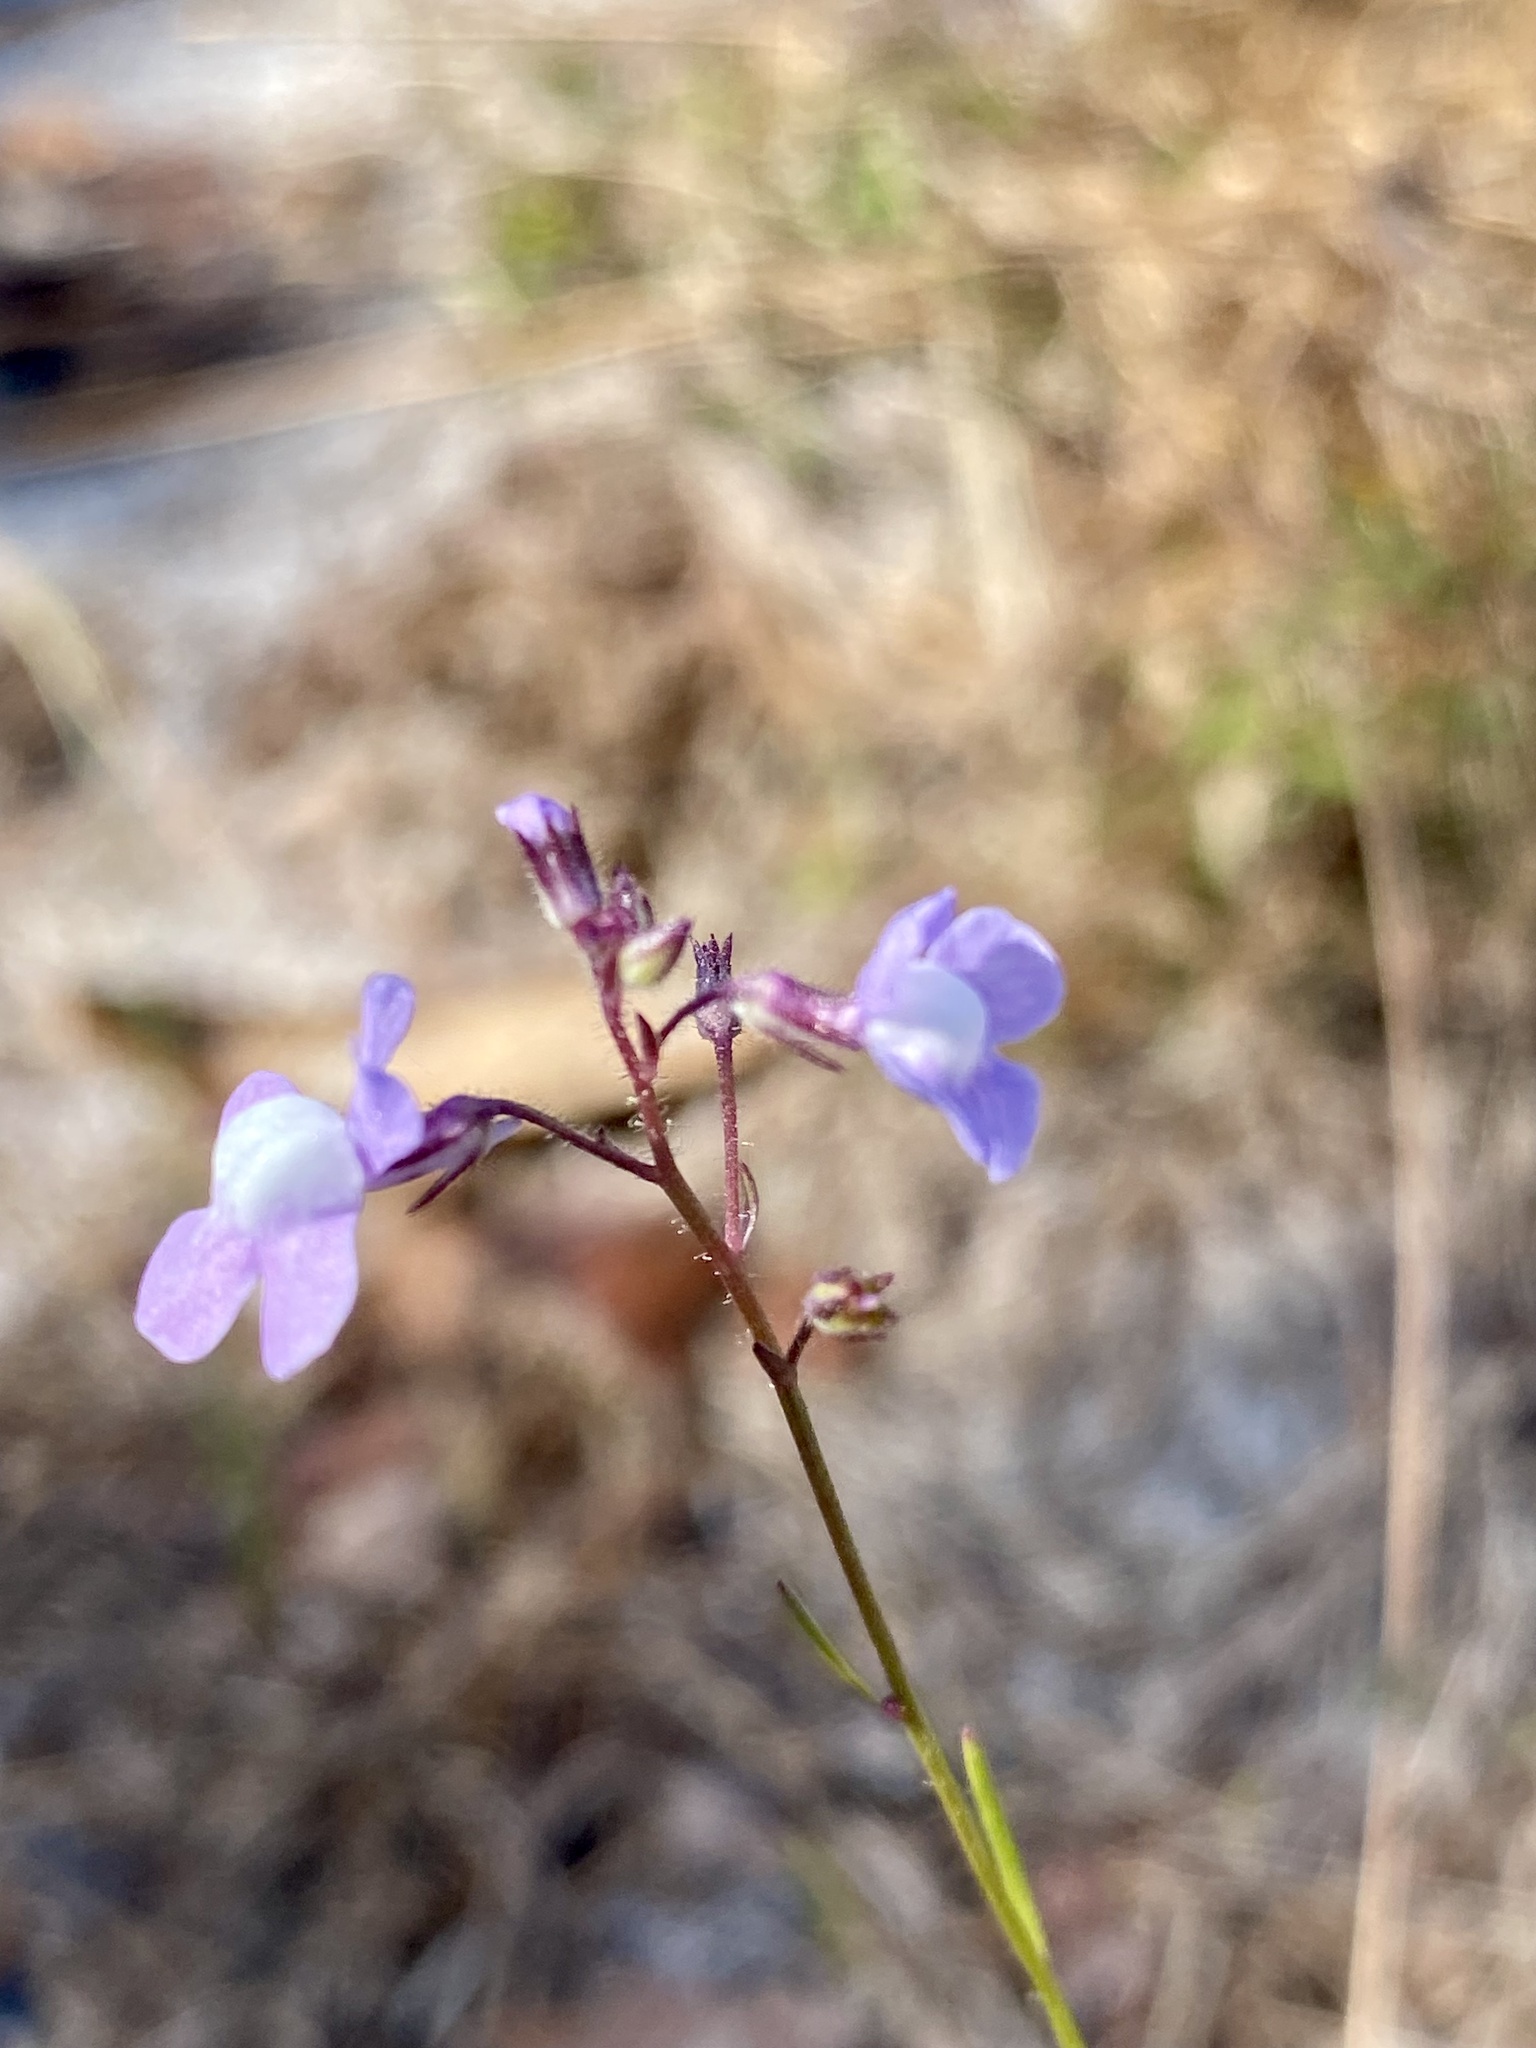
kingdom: Plantae
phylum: Tracheophyta
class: Magnoliopsida
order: Lamiales
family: Plantaginaceae
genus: Nuttallanthus
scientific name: Nuttallanthus floridanus
